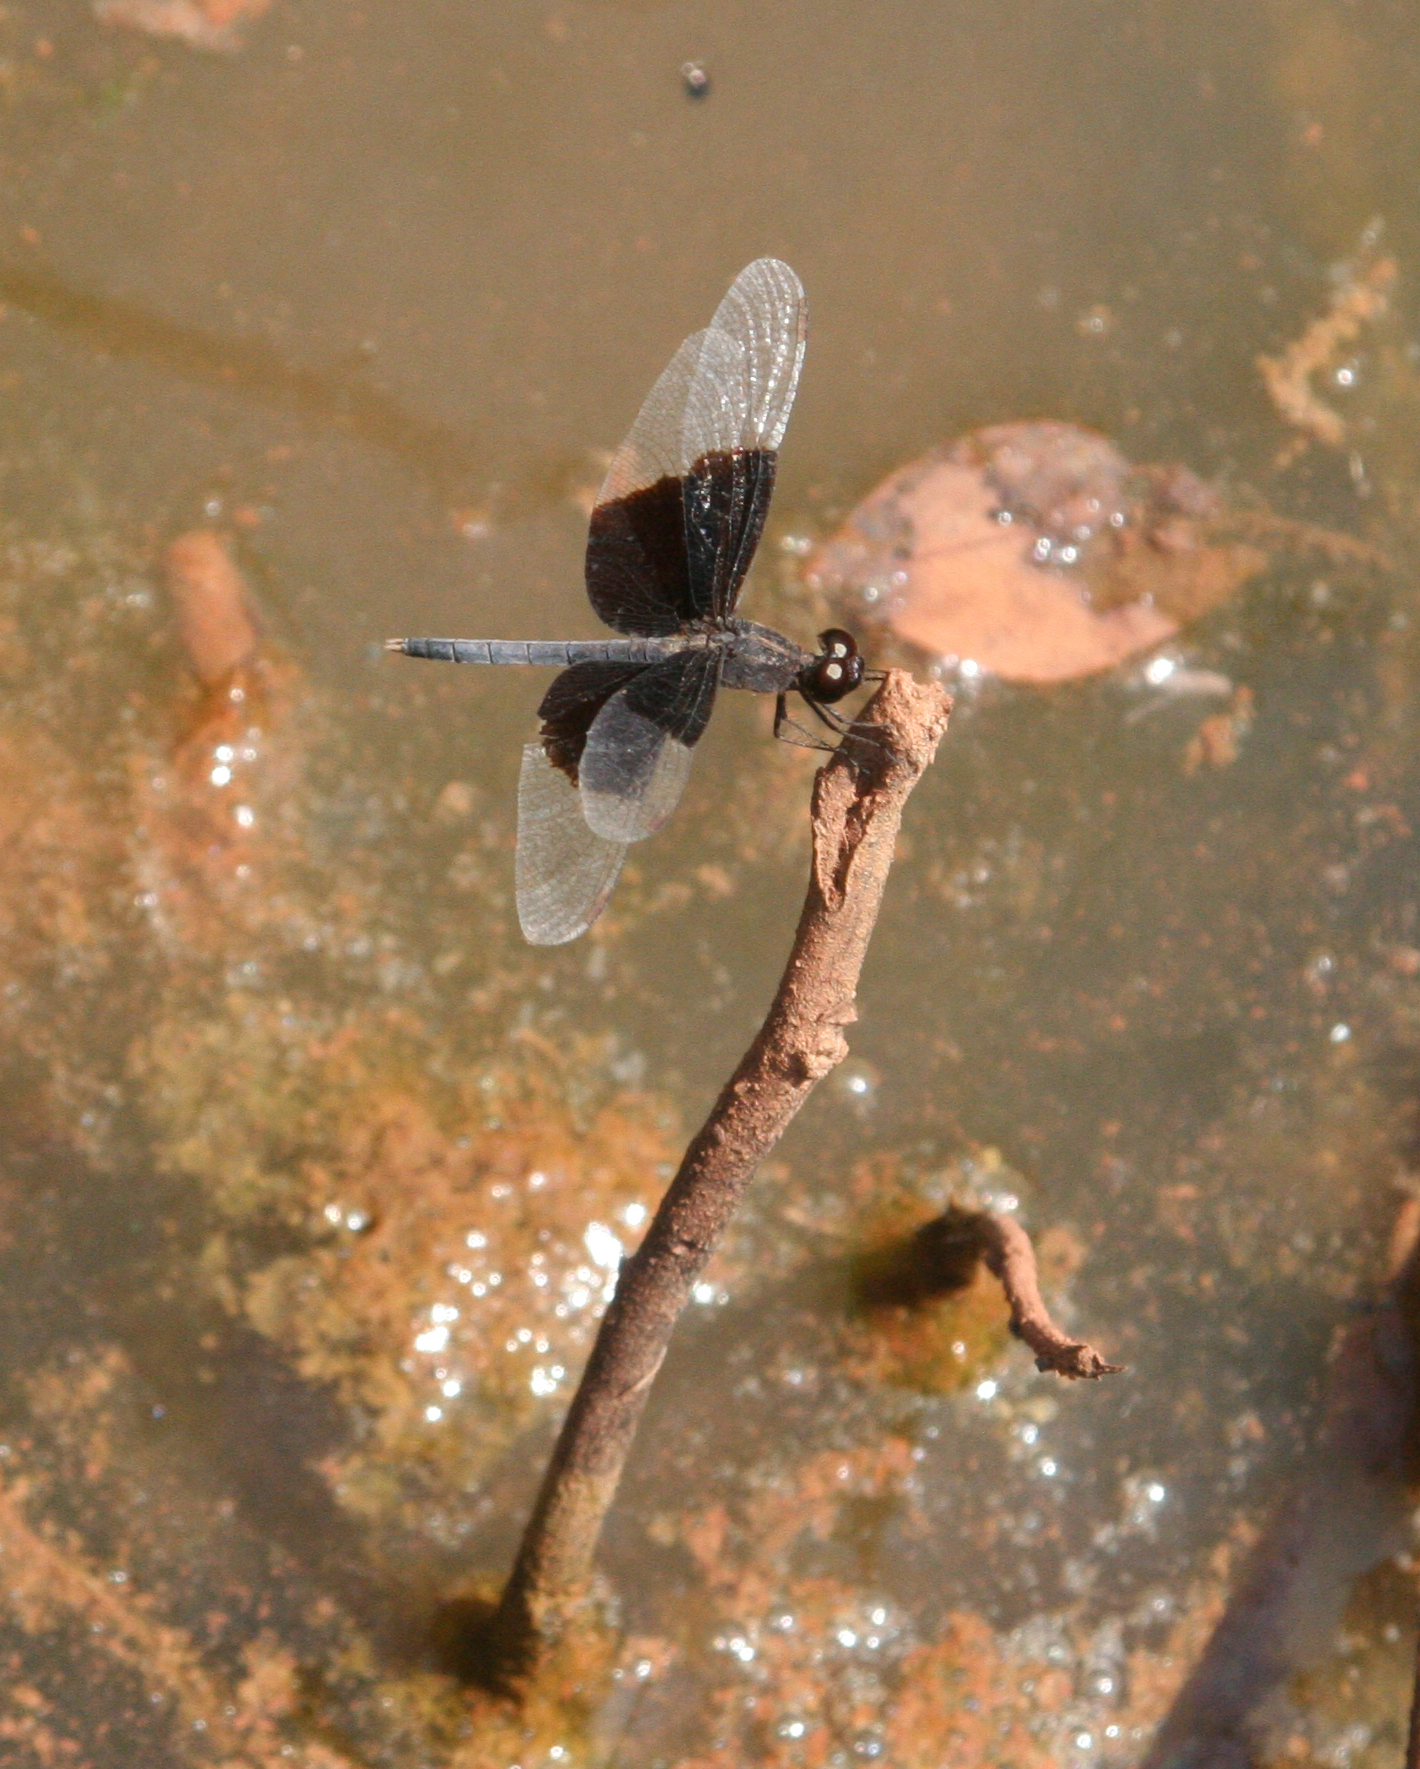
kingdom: Animalia
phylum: Arthropoda
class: Insecta
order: Odonata
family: Libellulidae
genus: Neurothemis
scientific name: Neurothemis tullia
